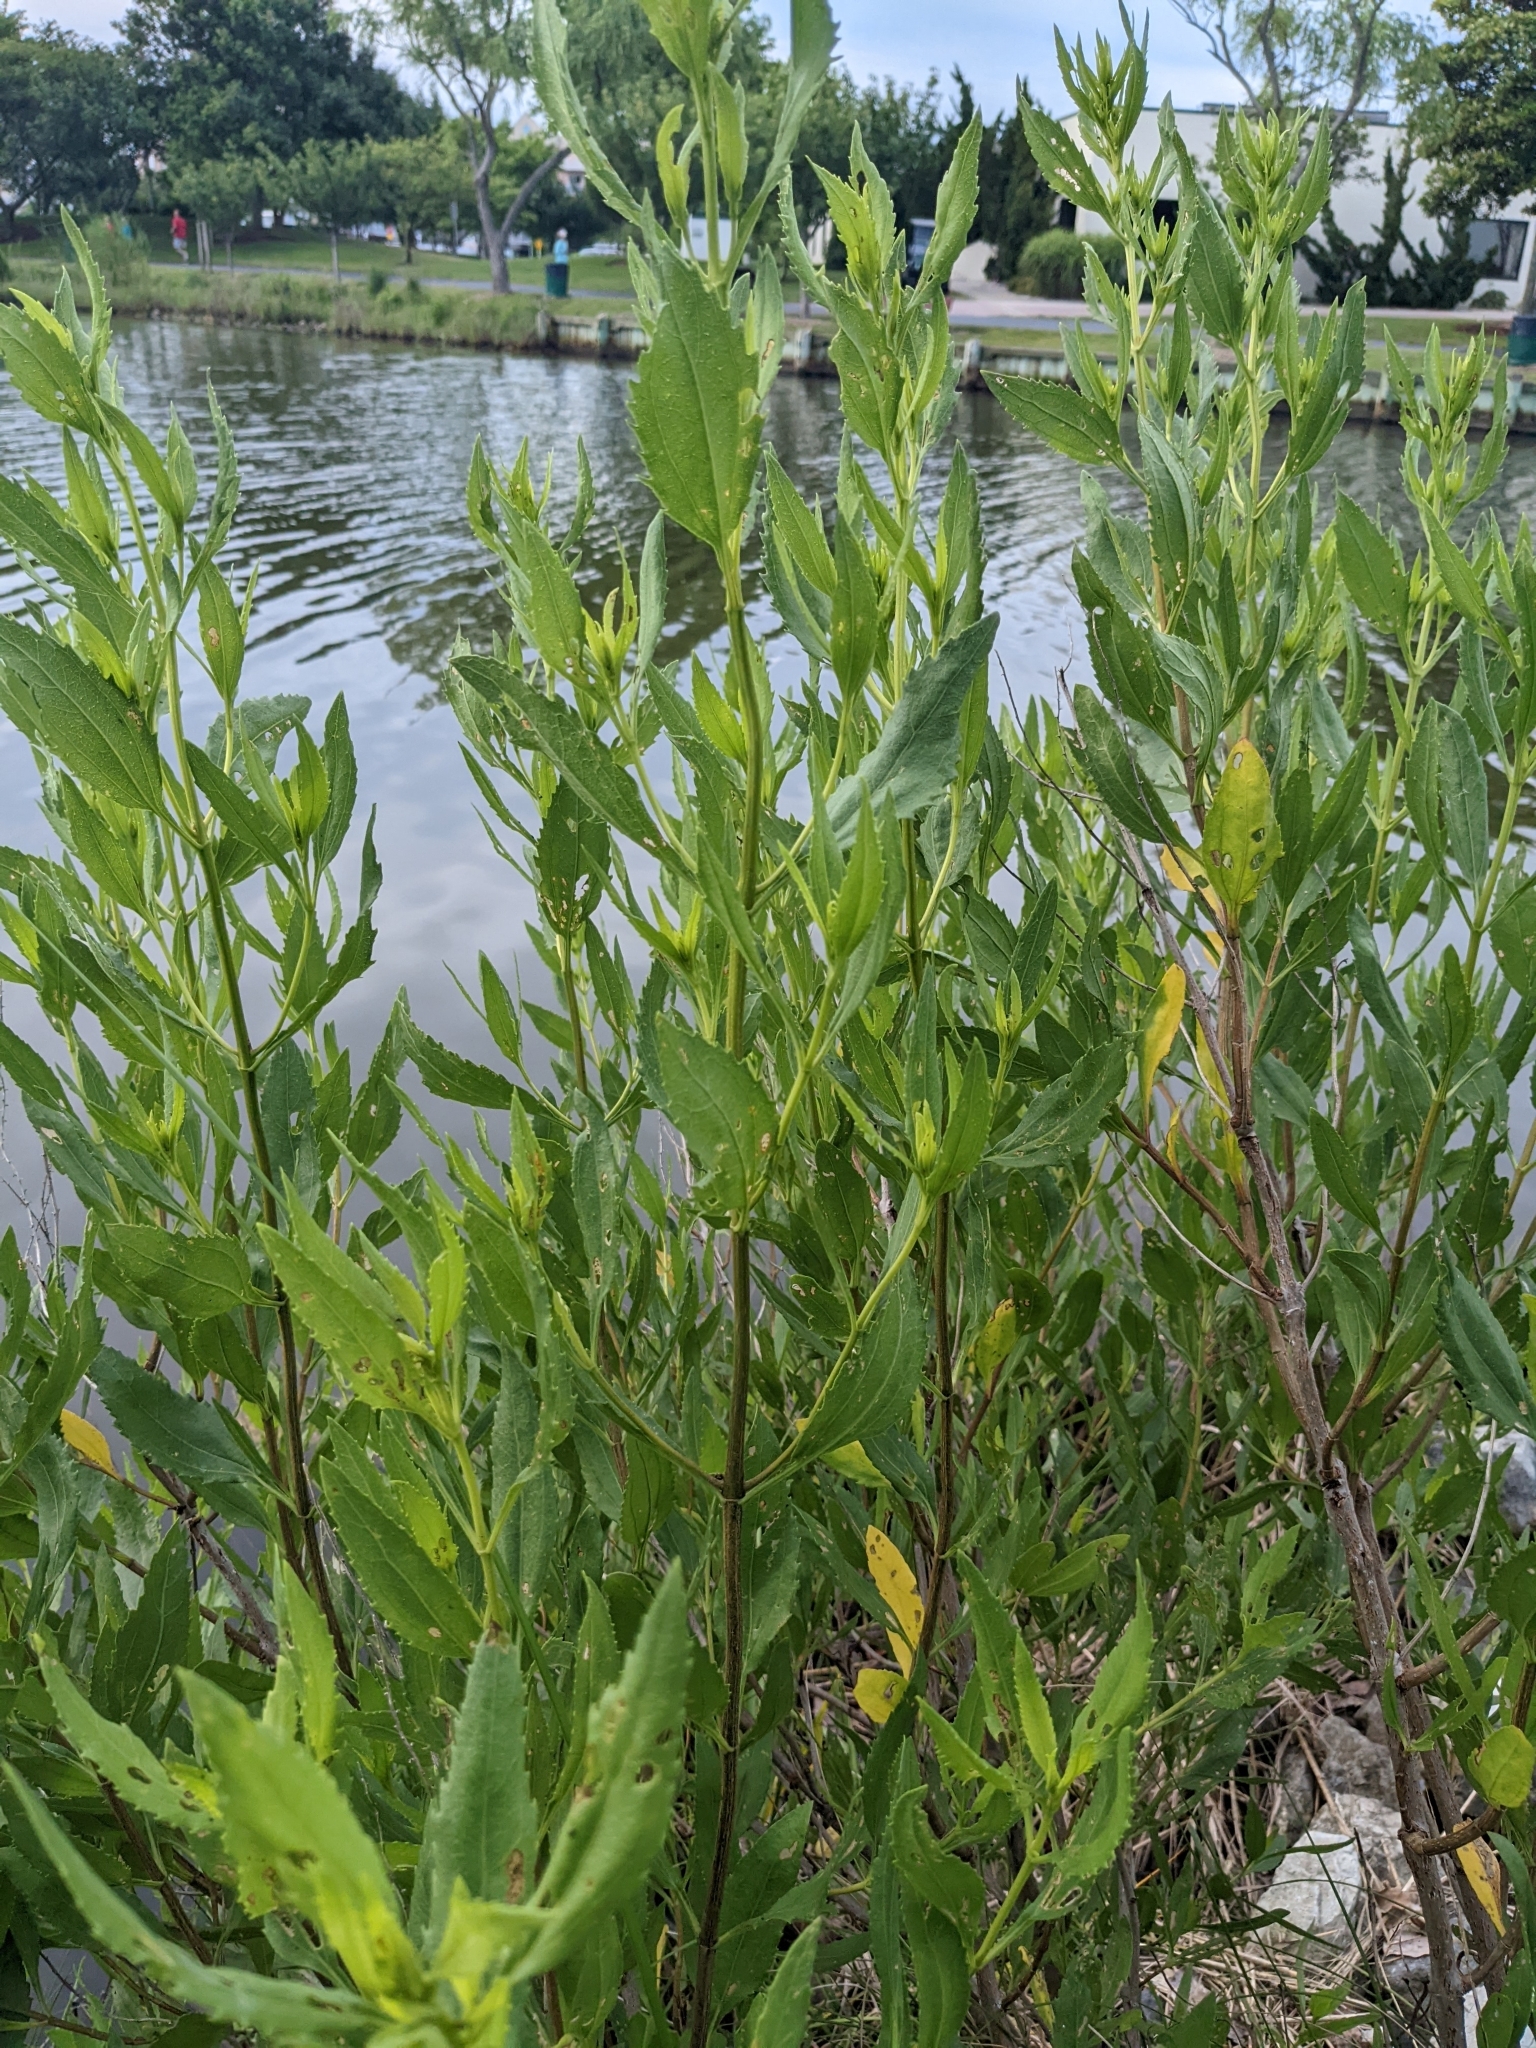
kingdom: Plantae
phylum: Tracheophyta
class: Magnoliopsida
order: Asterales
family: Asteraceae
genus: Iva
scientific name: Iva frutescens
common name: Big-leaved marsh-elder
